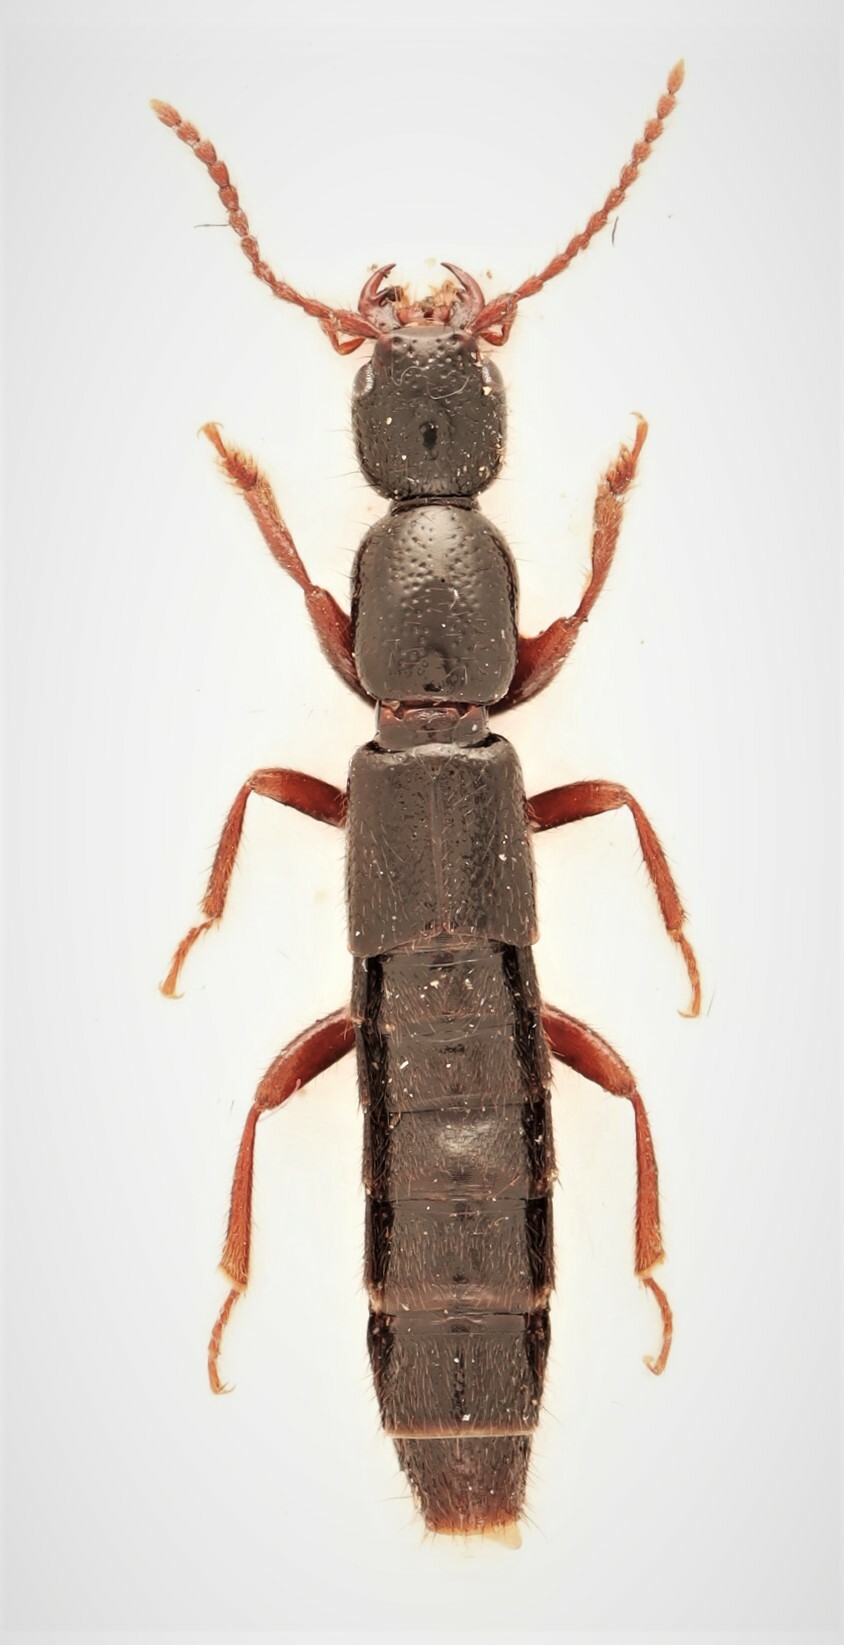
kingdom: Animalia
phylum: Arthropoda
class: Insecta
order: Coleoptera
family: Staphylinidae
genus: Lathrobium
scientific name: Lathrobium fauveli
